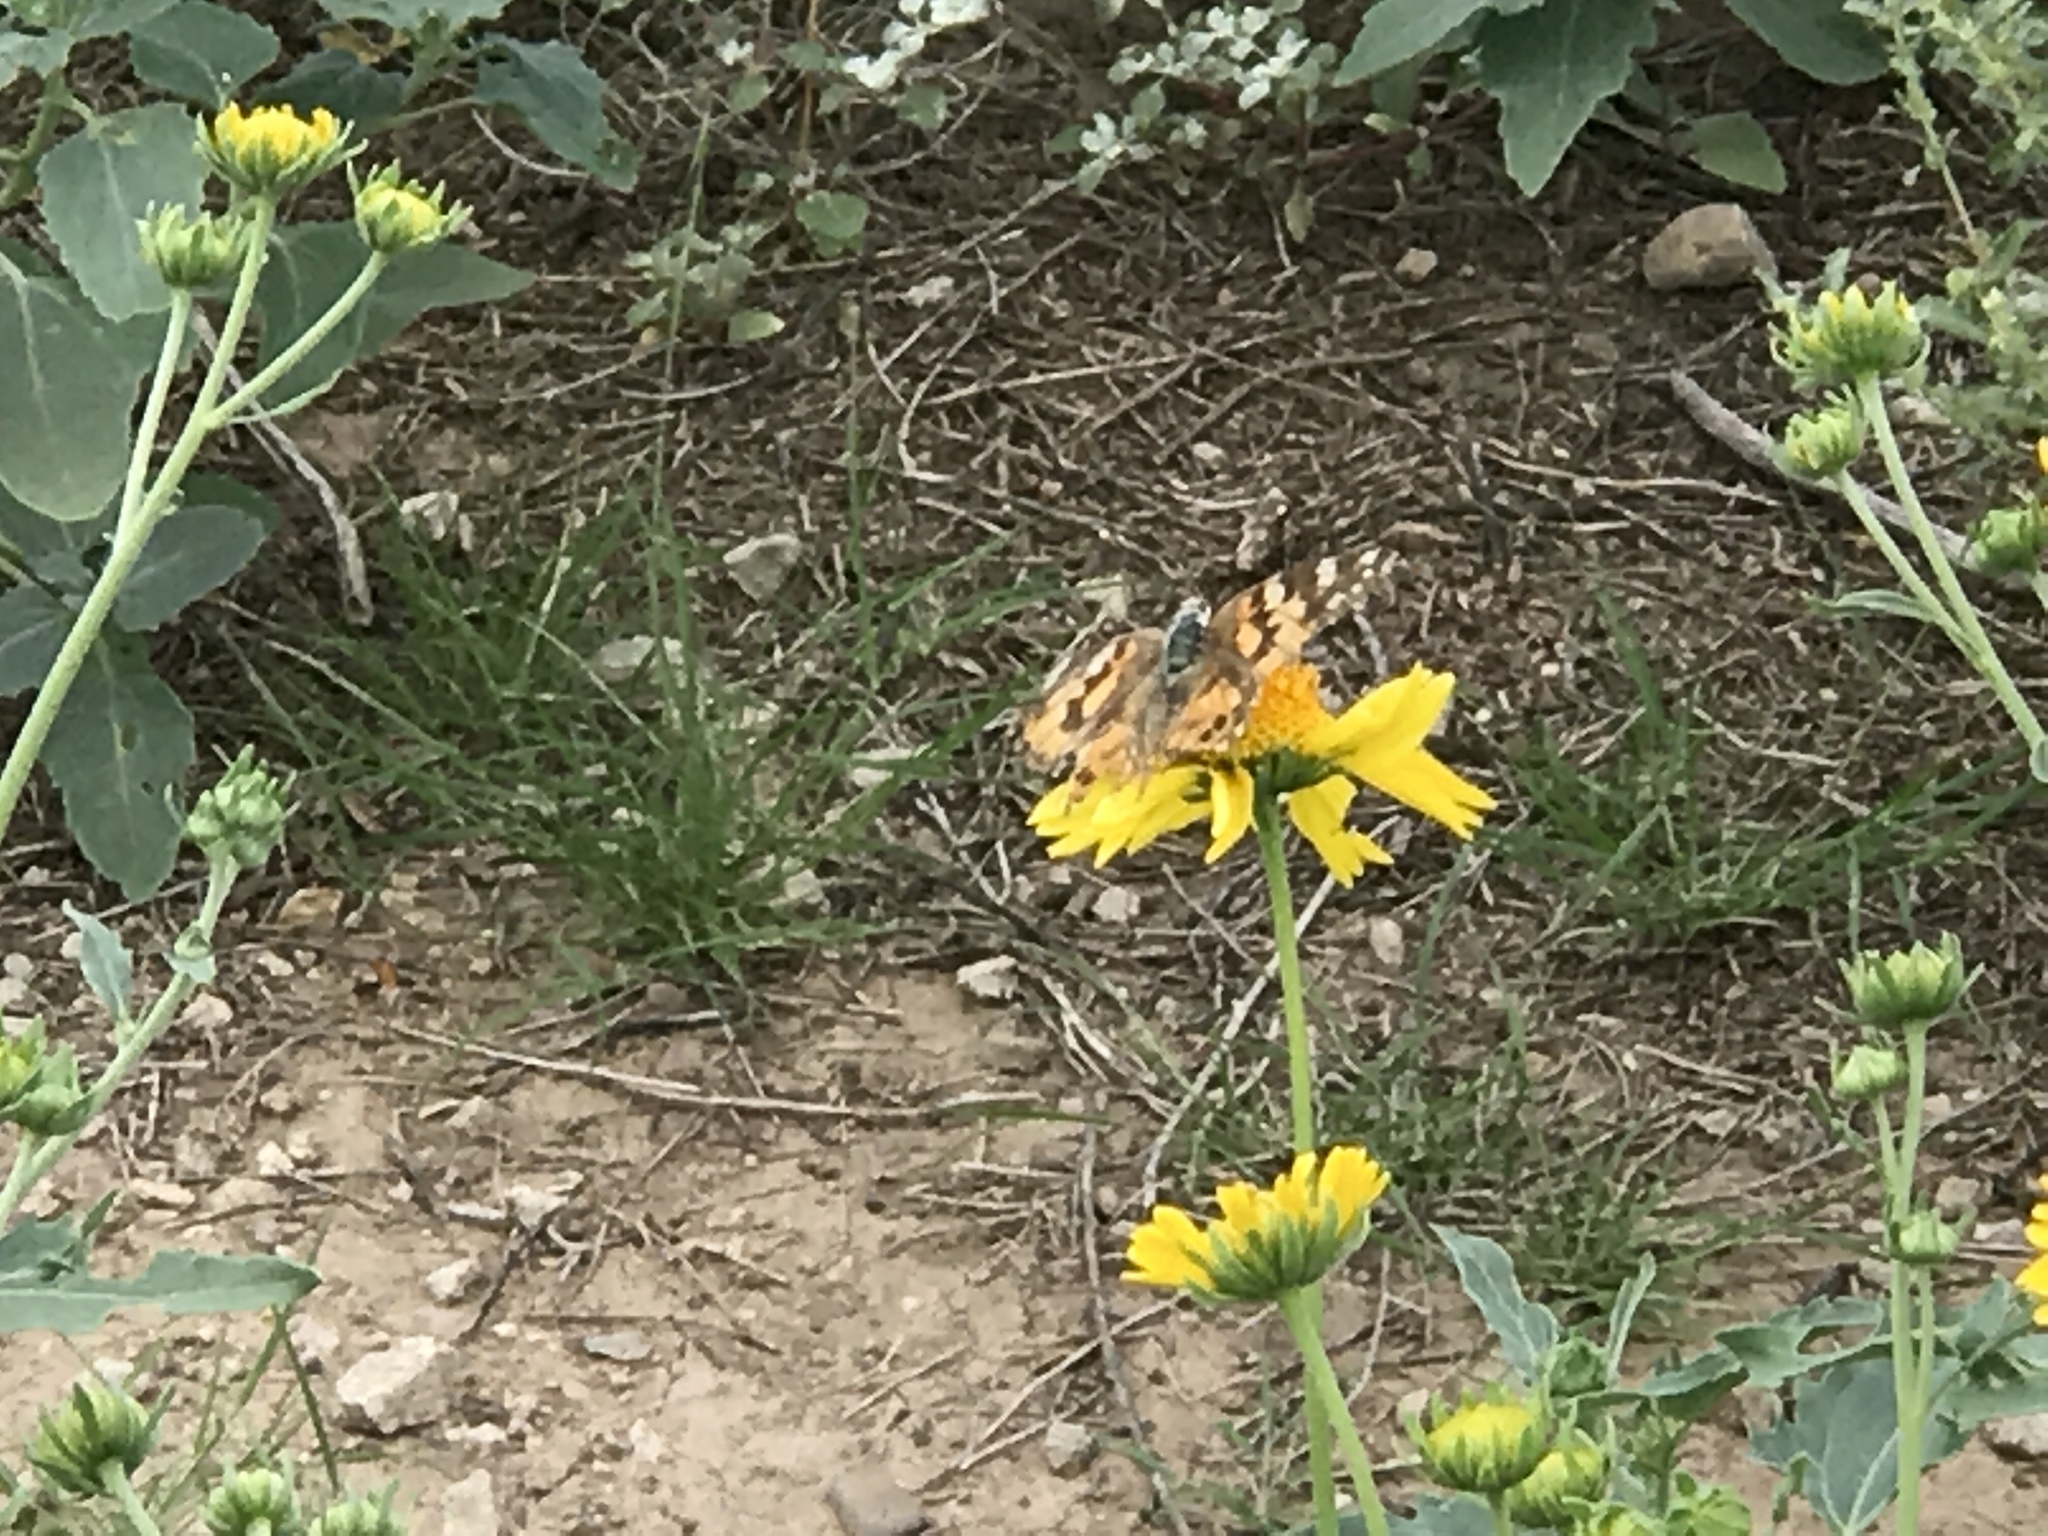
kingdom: Animalia
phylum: Arthropoda
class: Insecta
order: Lepidoptera
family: Nymphalidae
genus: Vanessa
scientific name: Vanessa cardui
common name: Painted lady
